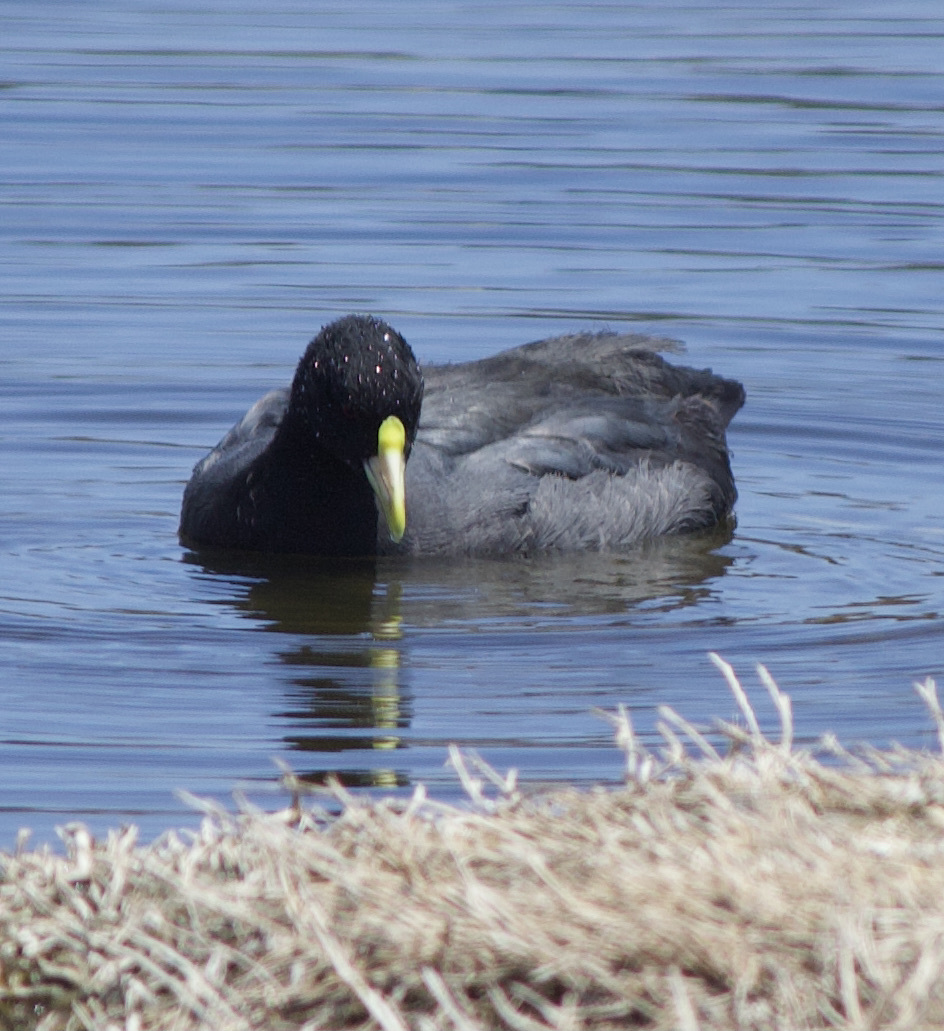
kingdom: Animalia
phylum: Chordata
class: Aves
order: Gruiformes
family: Rallidae
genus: Fulica
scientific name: Fulica leucoptera
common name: White-winged coot
